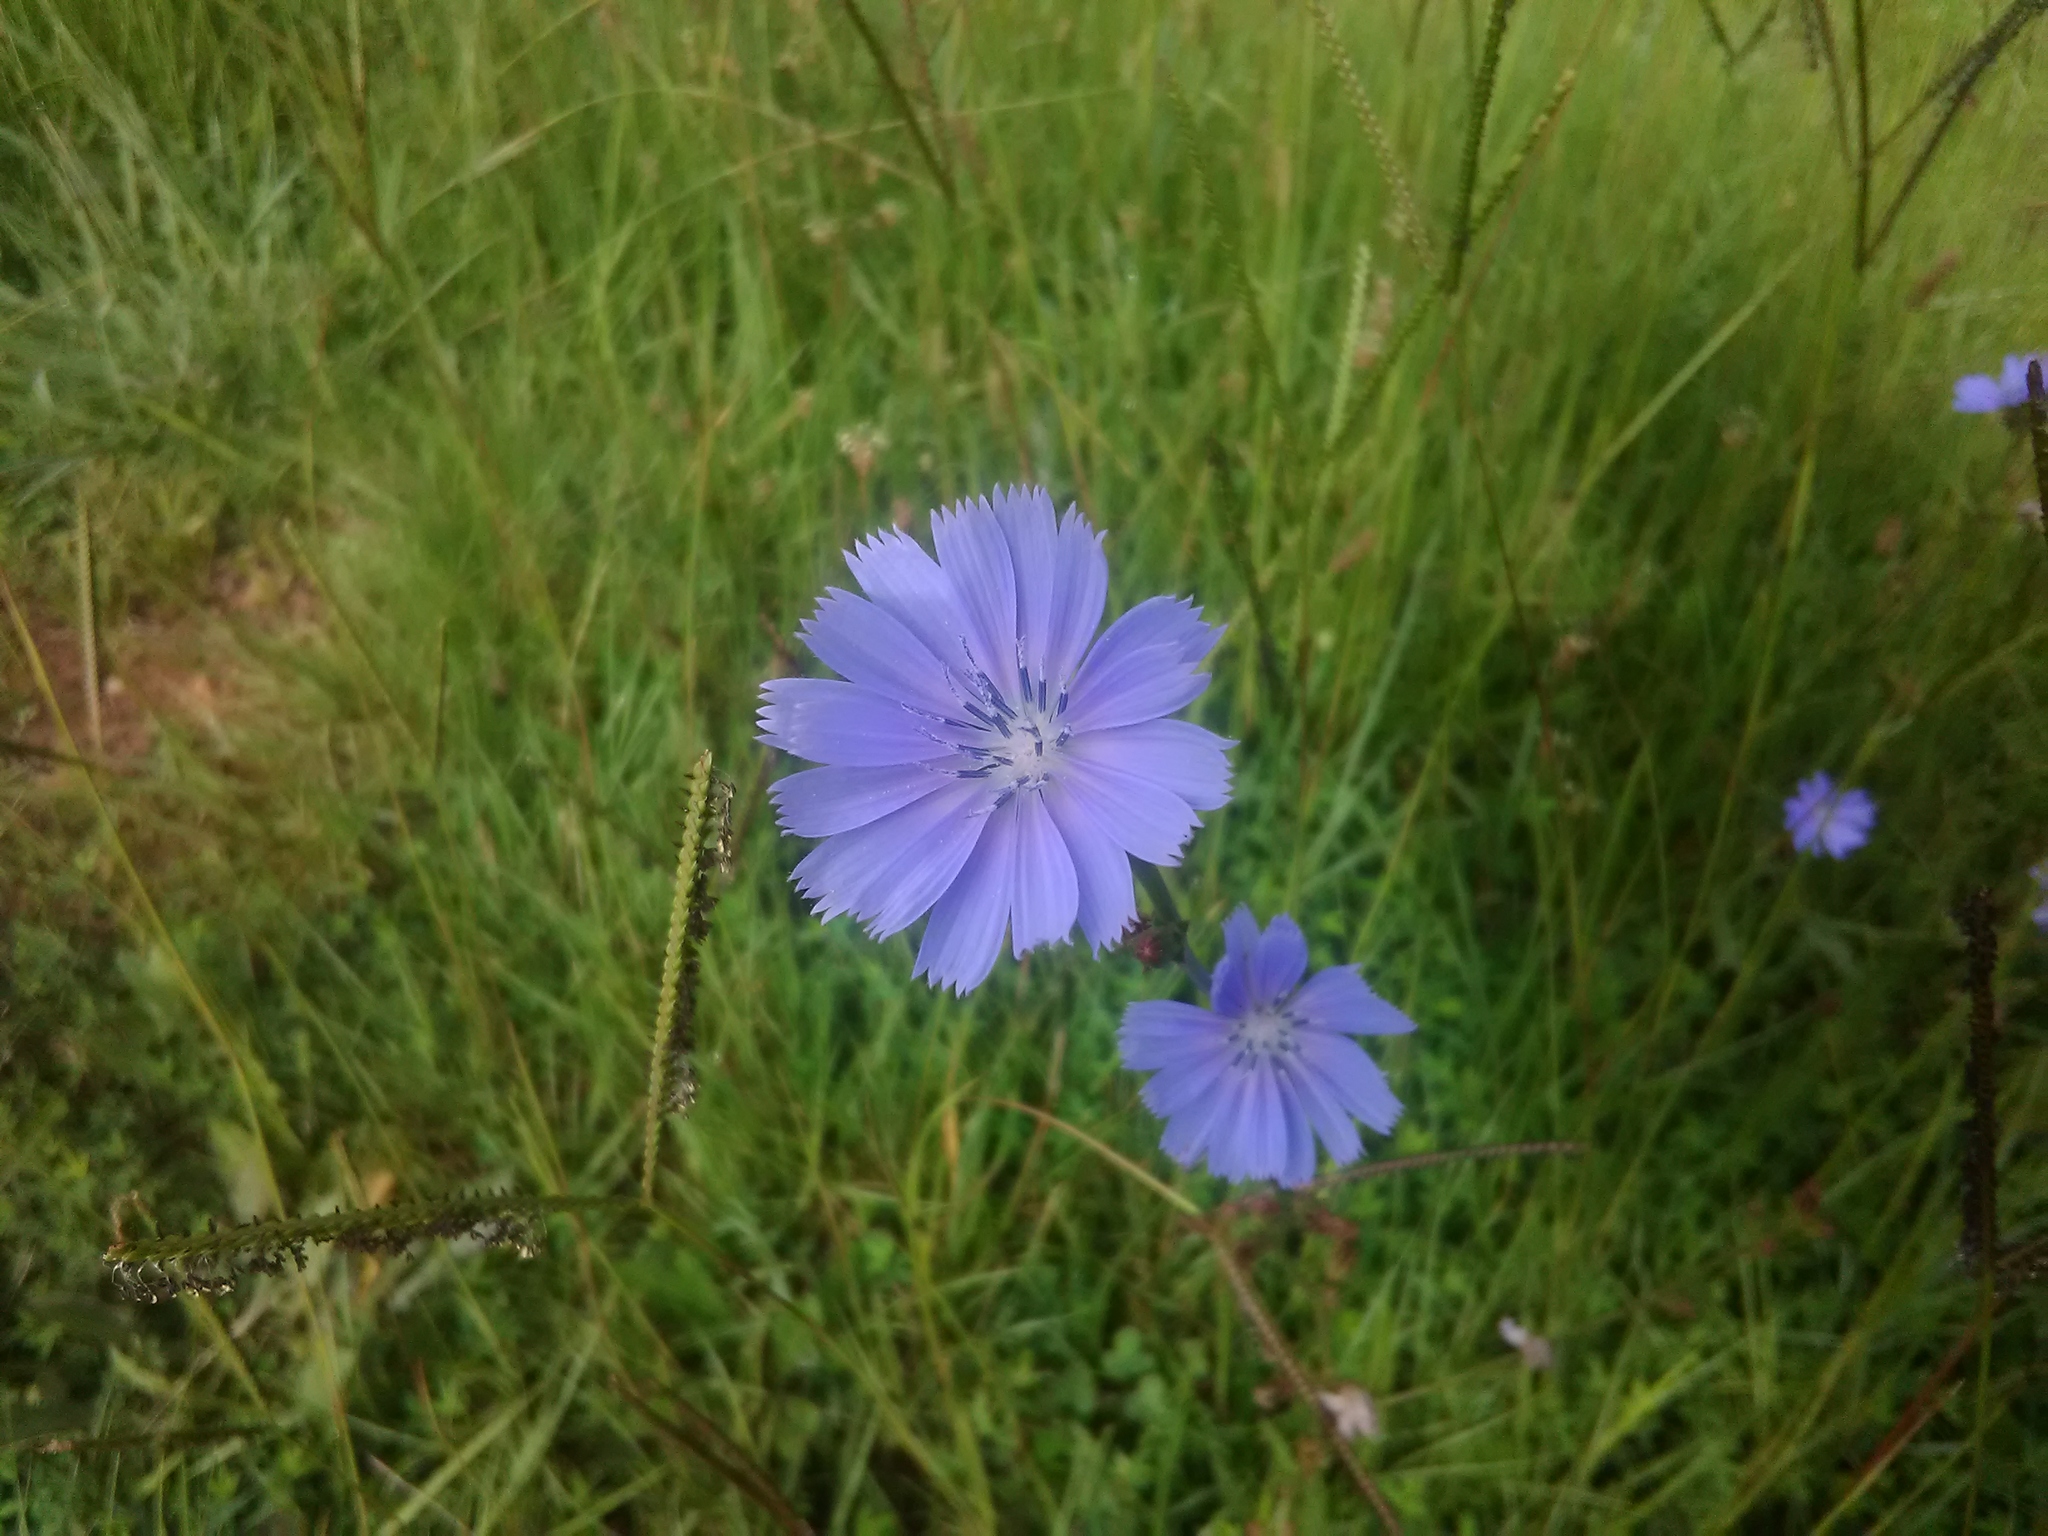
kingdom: Plantae
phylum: Tracheophyta
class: Magnoliopsida
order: Asterales
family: Asteraceae
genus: Cichorium
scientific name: Cichorium intybus
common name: Chicory
